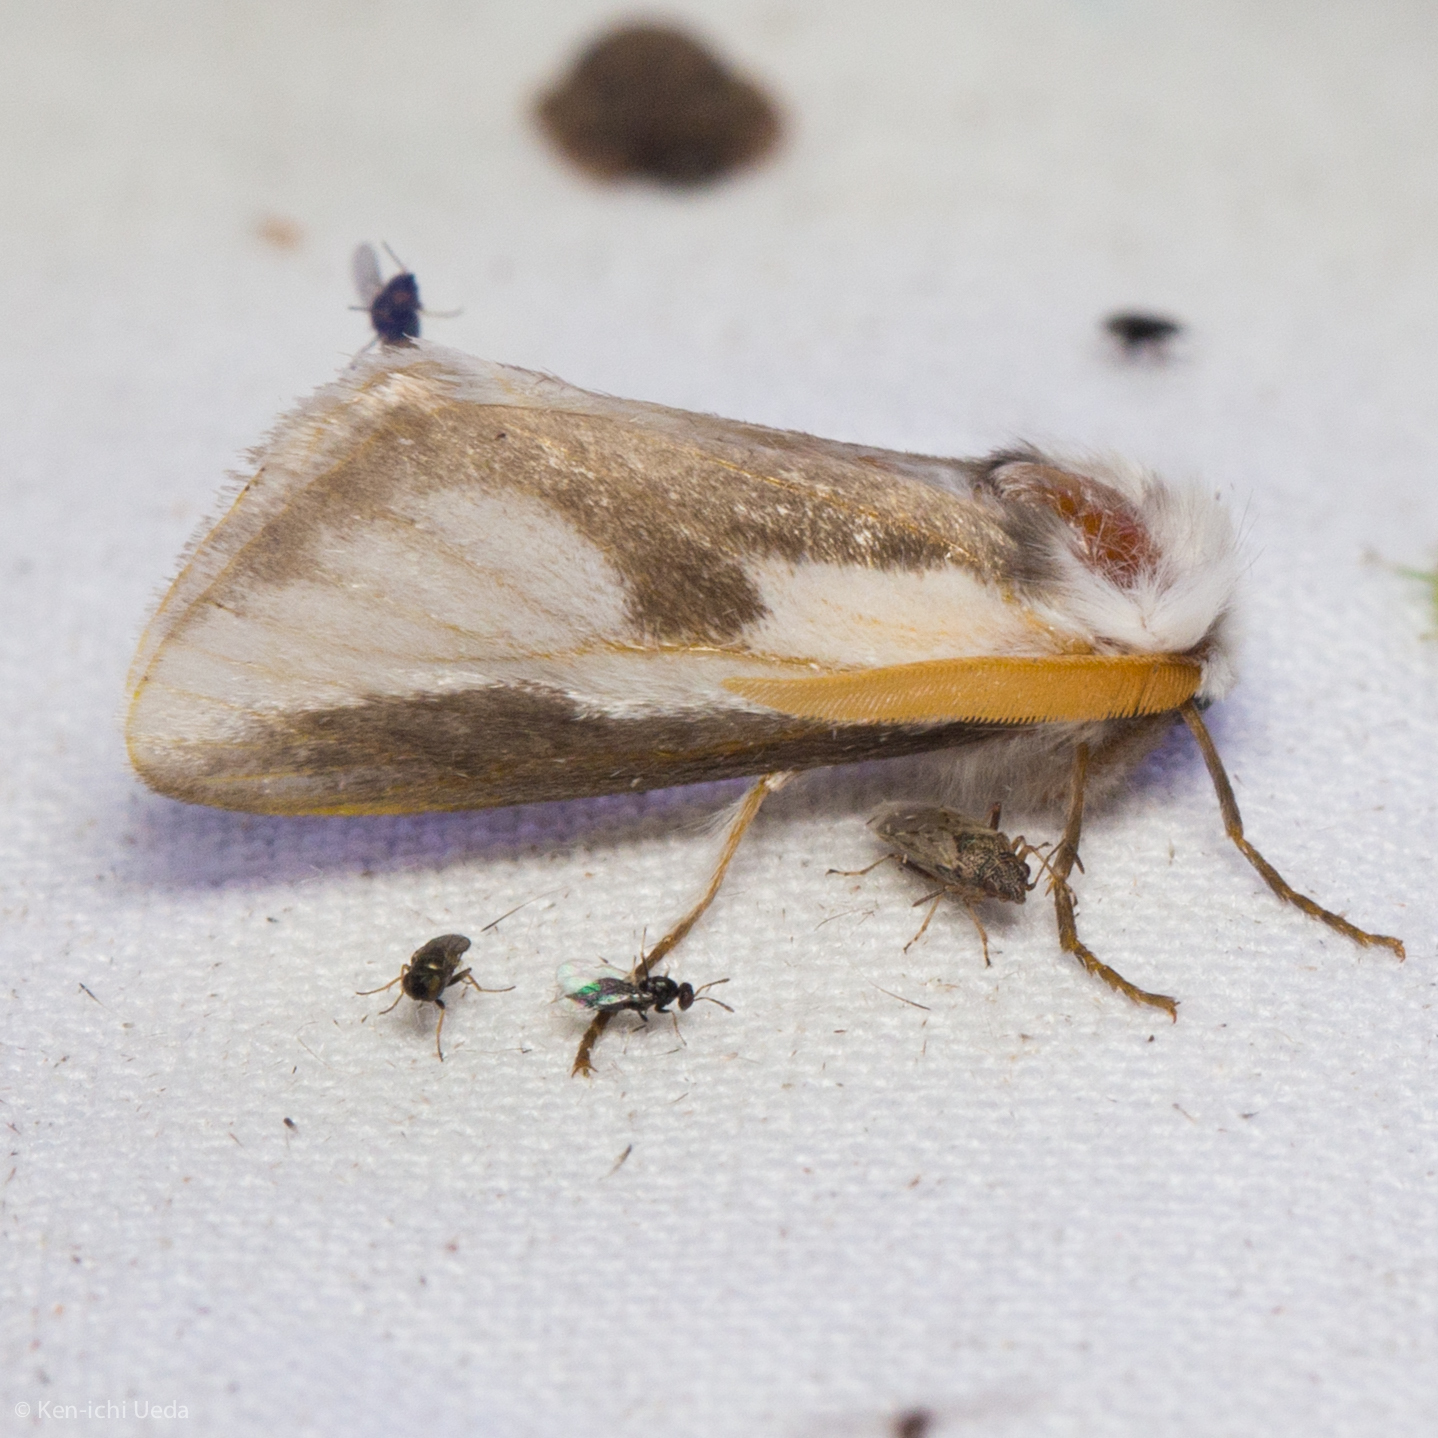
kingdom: Animalia
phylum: Arthropoda
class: Insecta
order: Lepidoptera
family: Megalopygidae
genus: Norape
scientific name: Norape tener
